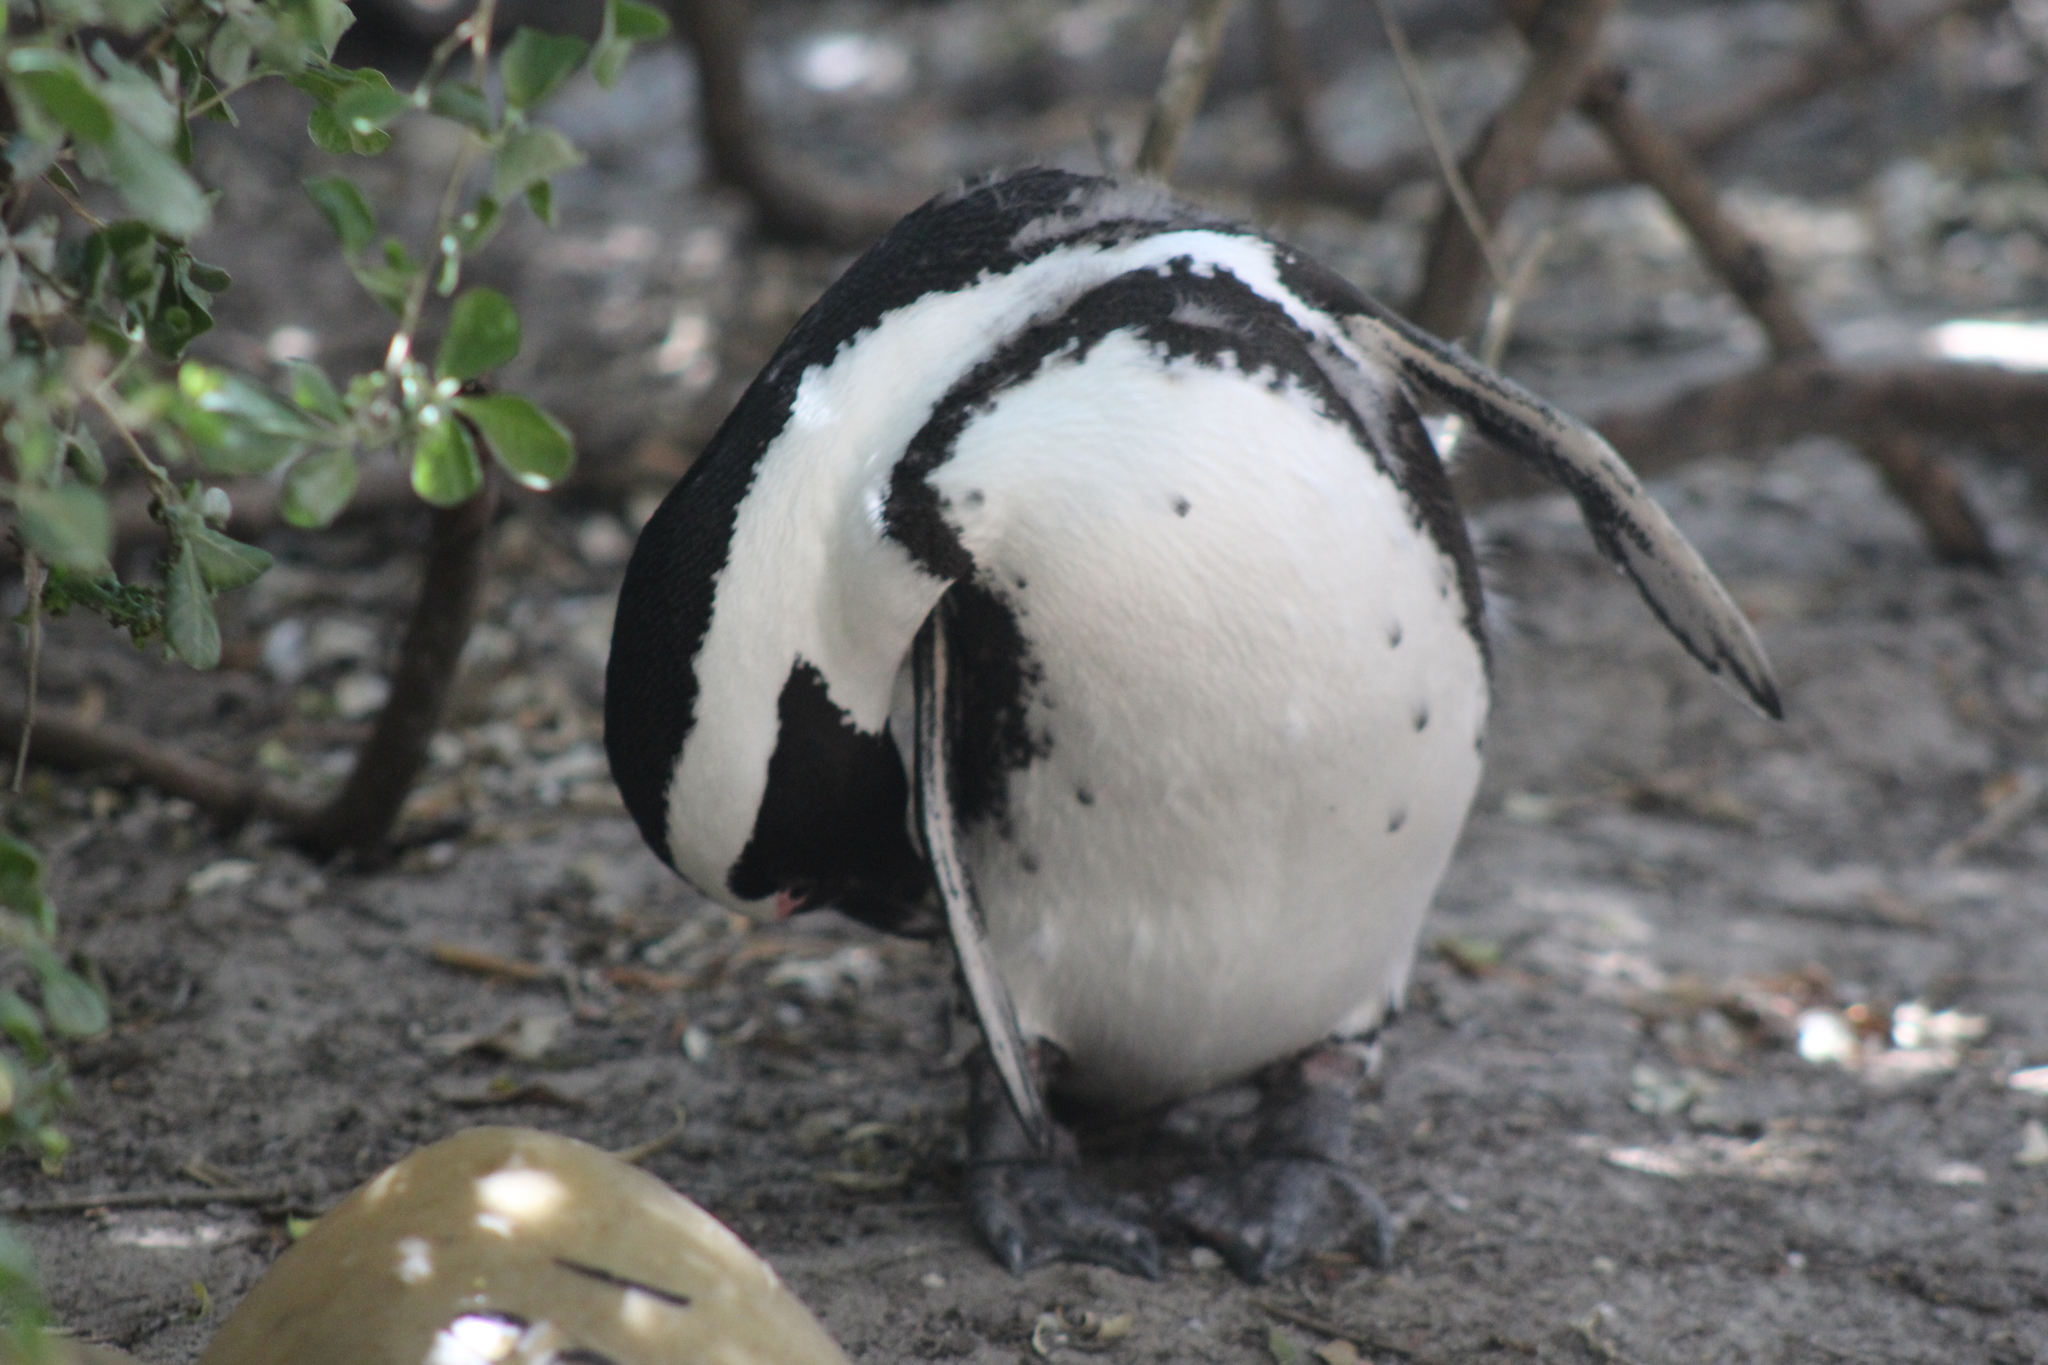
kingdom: Animalia
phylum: Chordata
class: Aves
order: Sphenisciformes
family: Spheniscidae
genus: Spheniscus
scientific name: Spheniscus demersus
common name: African penguin
